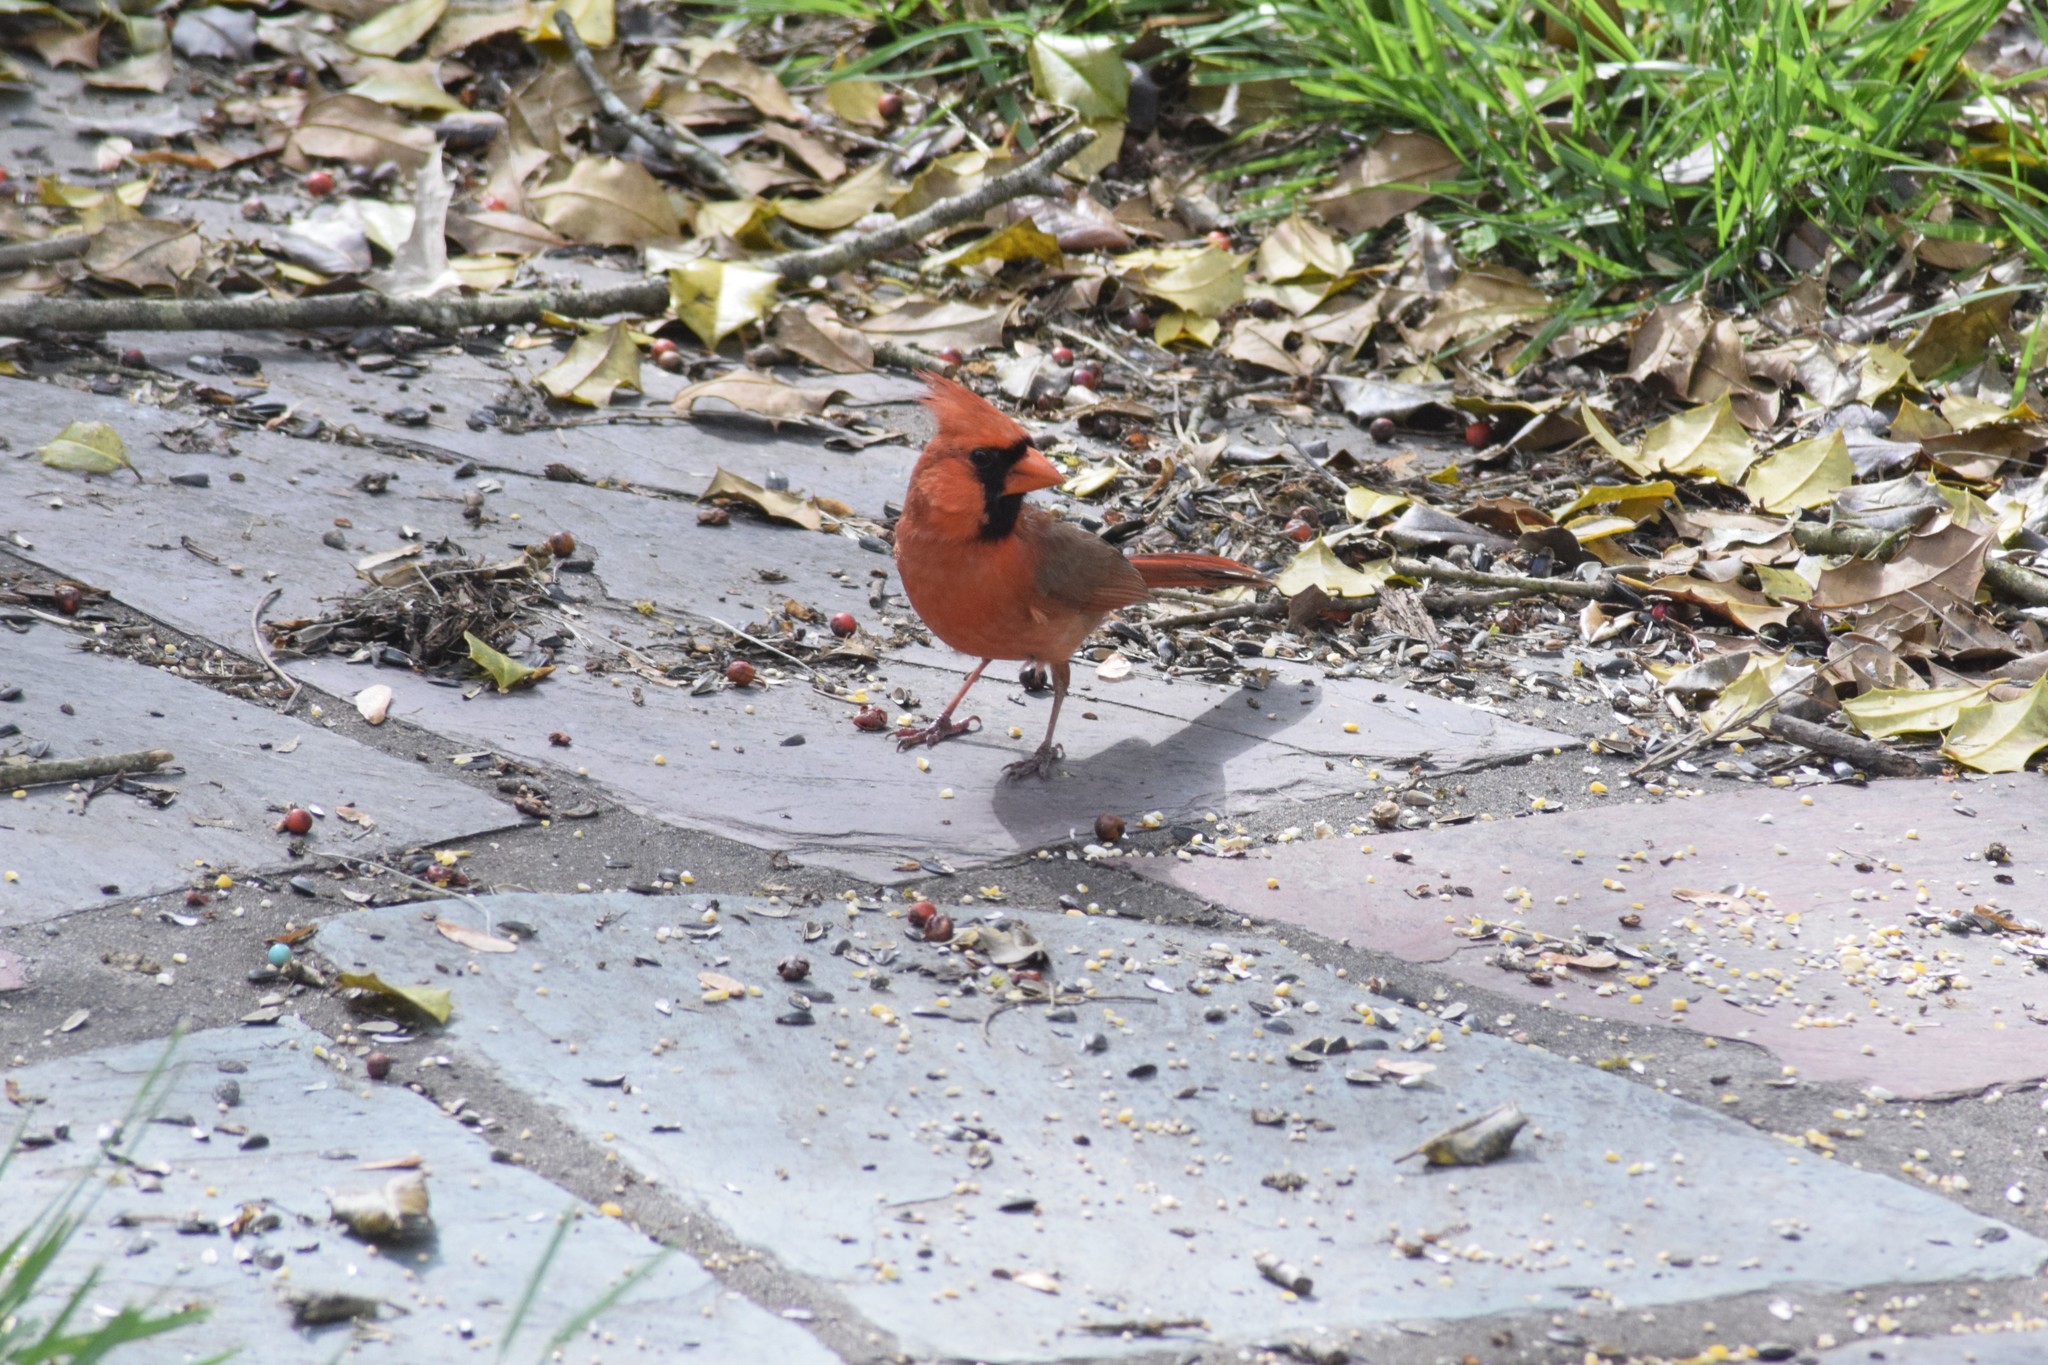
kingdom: Animalia
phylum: Chordata
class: Aves
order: Passeriformes
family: Cardinalidae
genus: Cardinalis
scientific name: Cardinalis cardinalis
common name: Northern cardinal
